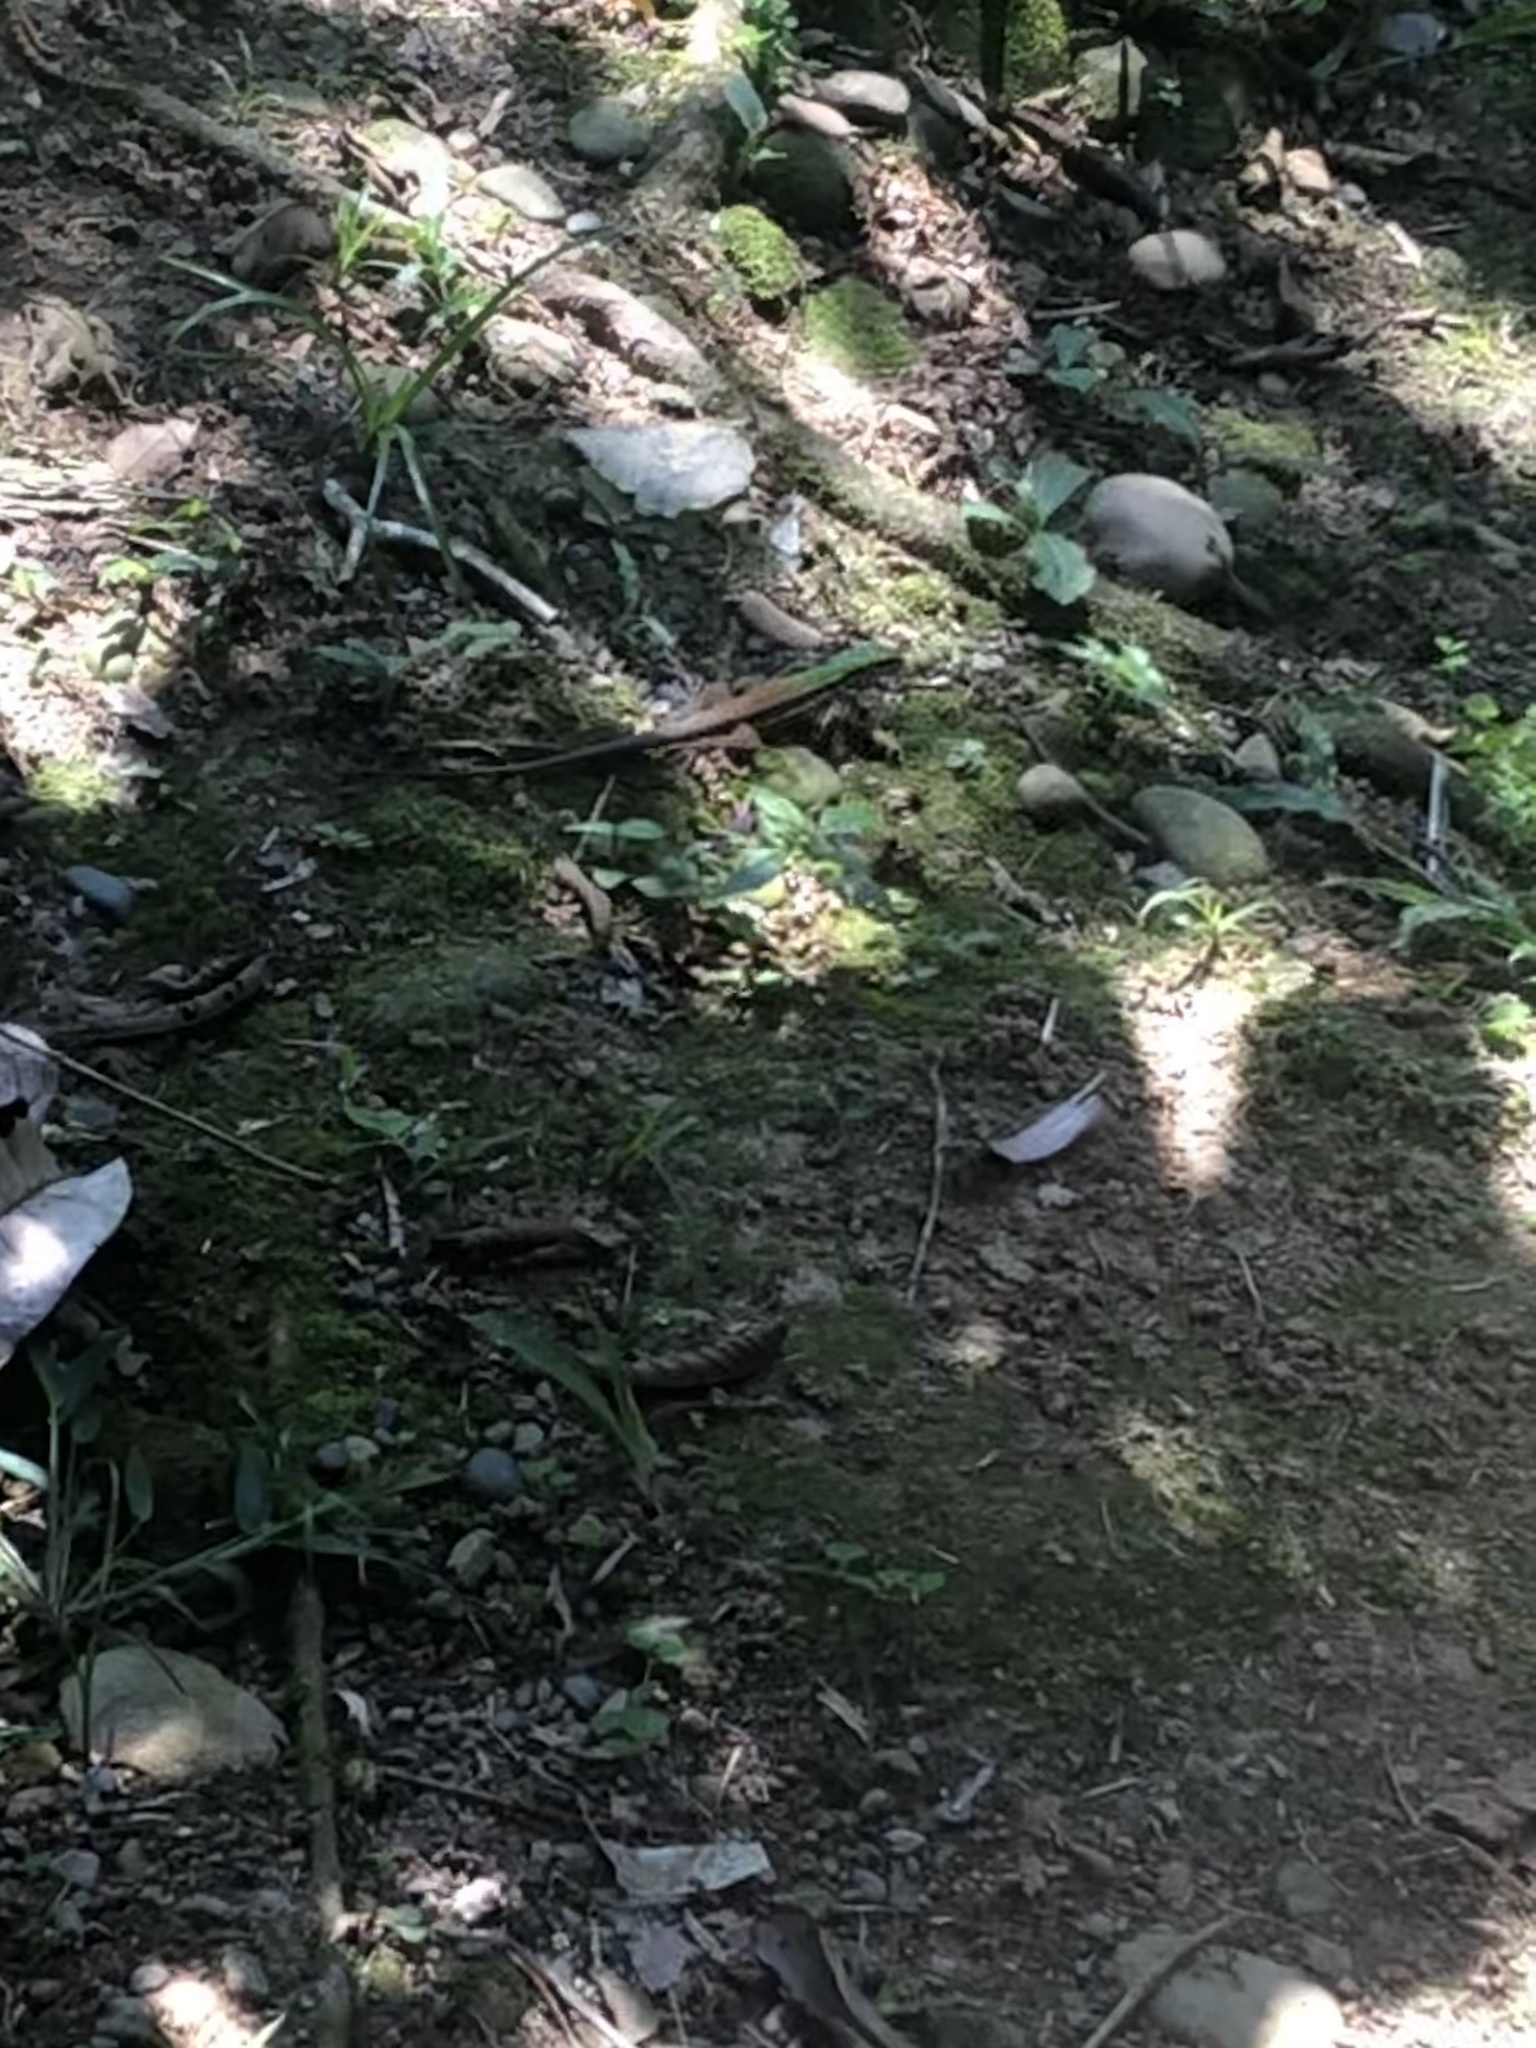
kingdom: Animalia
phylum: Chordata
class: Squamata
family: Teiidae
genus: Kentropyx
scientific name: Kentropyx altamazonica
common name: Cocha whiptail
